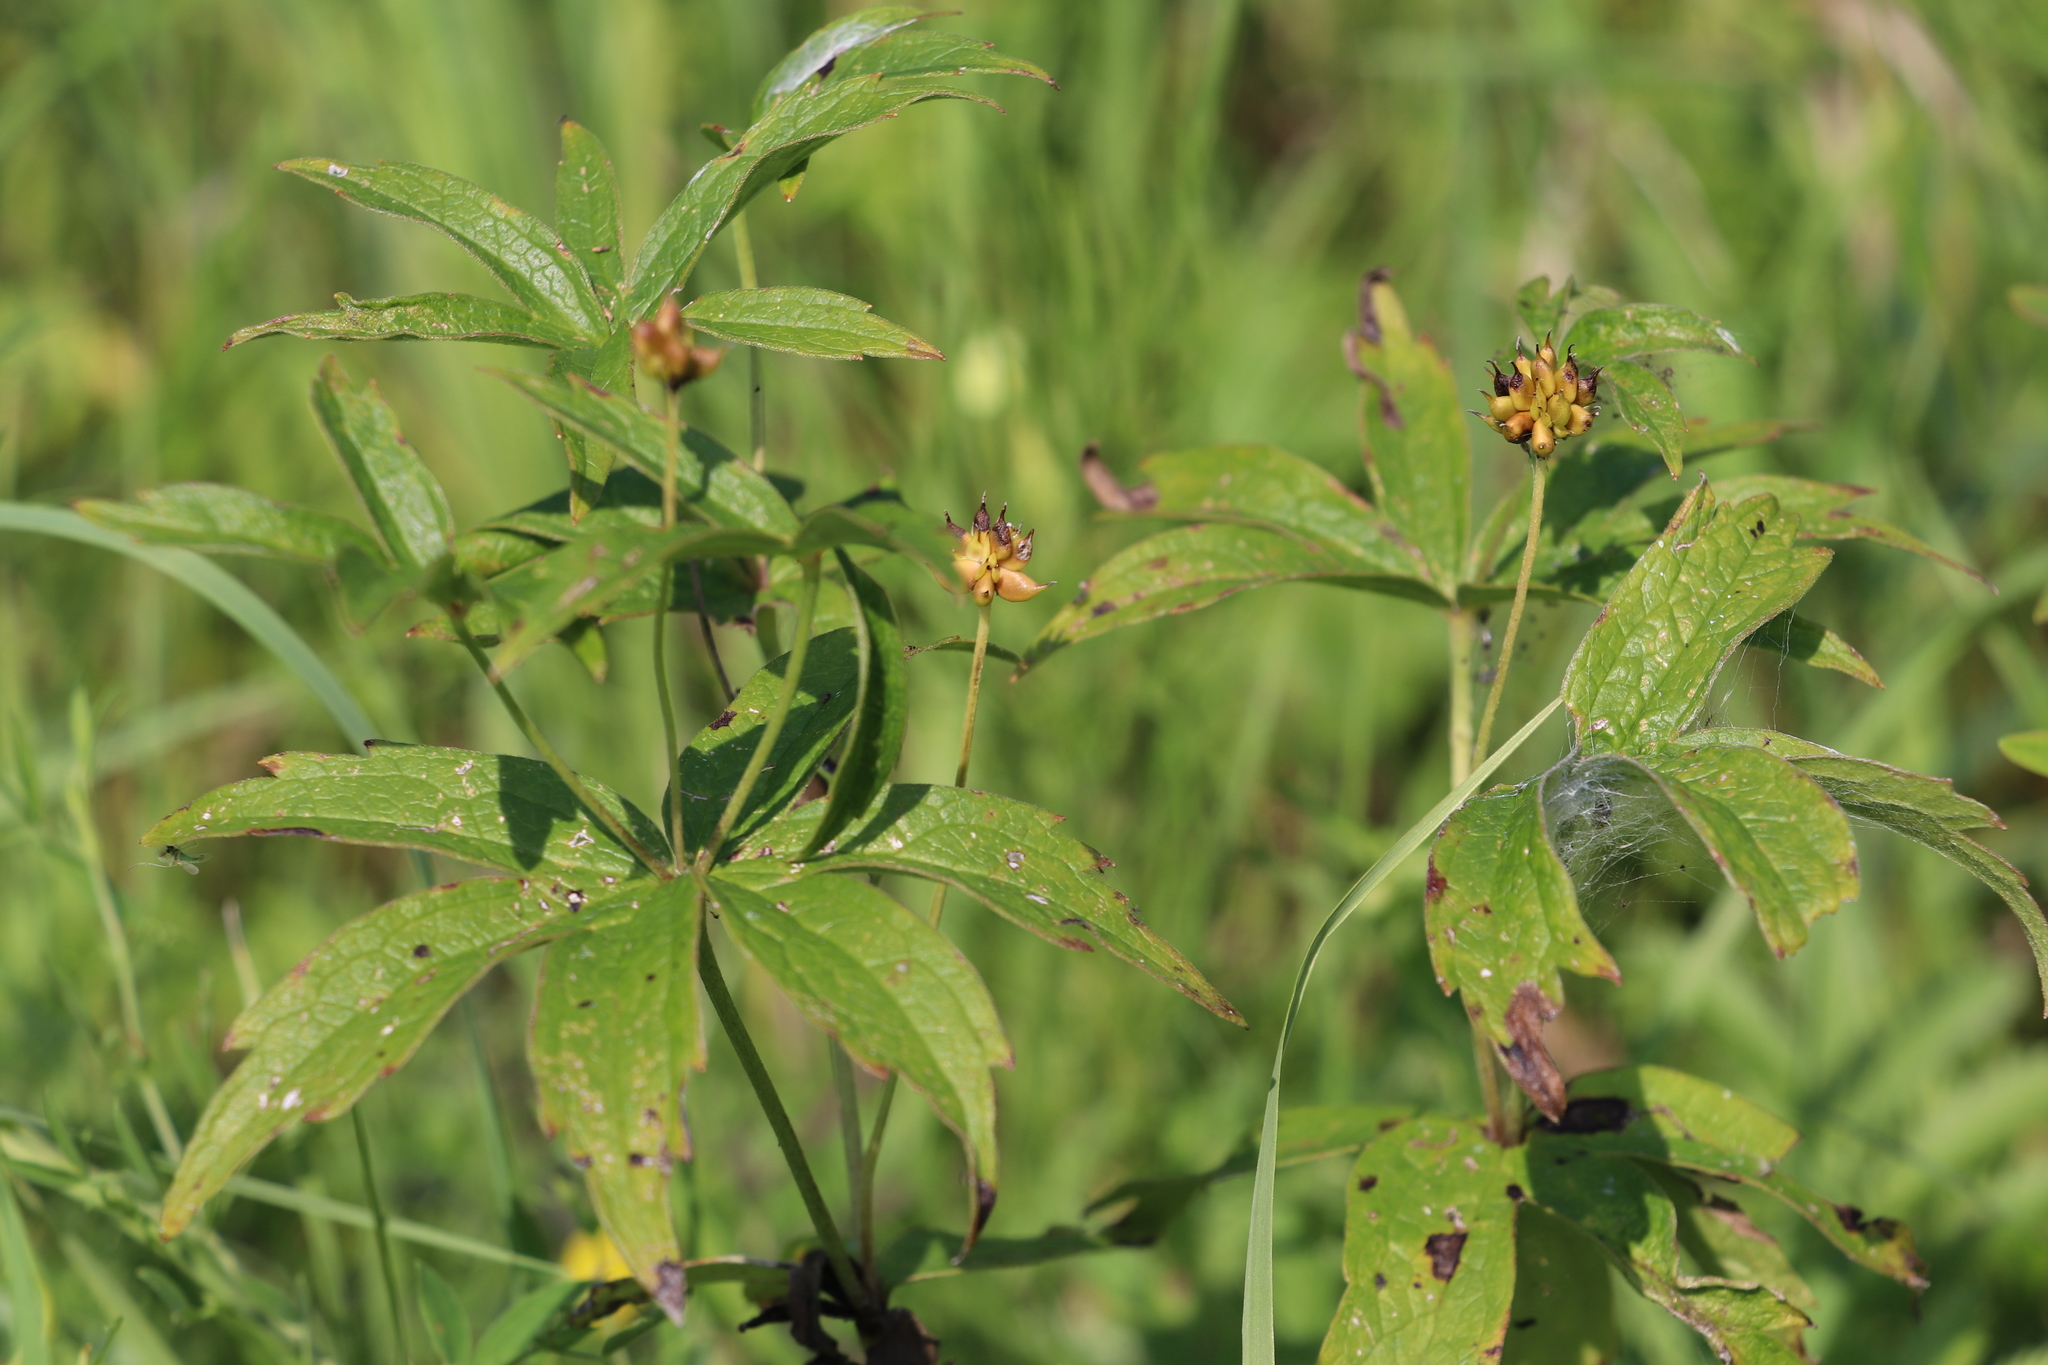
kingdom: Plantae
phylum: Tracheophyta
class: Magnoliopsida
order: Ranunculales
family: Ranunculaceae
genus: Anemonastrum
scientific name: Anemonastrum dichotomum
